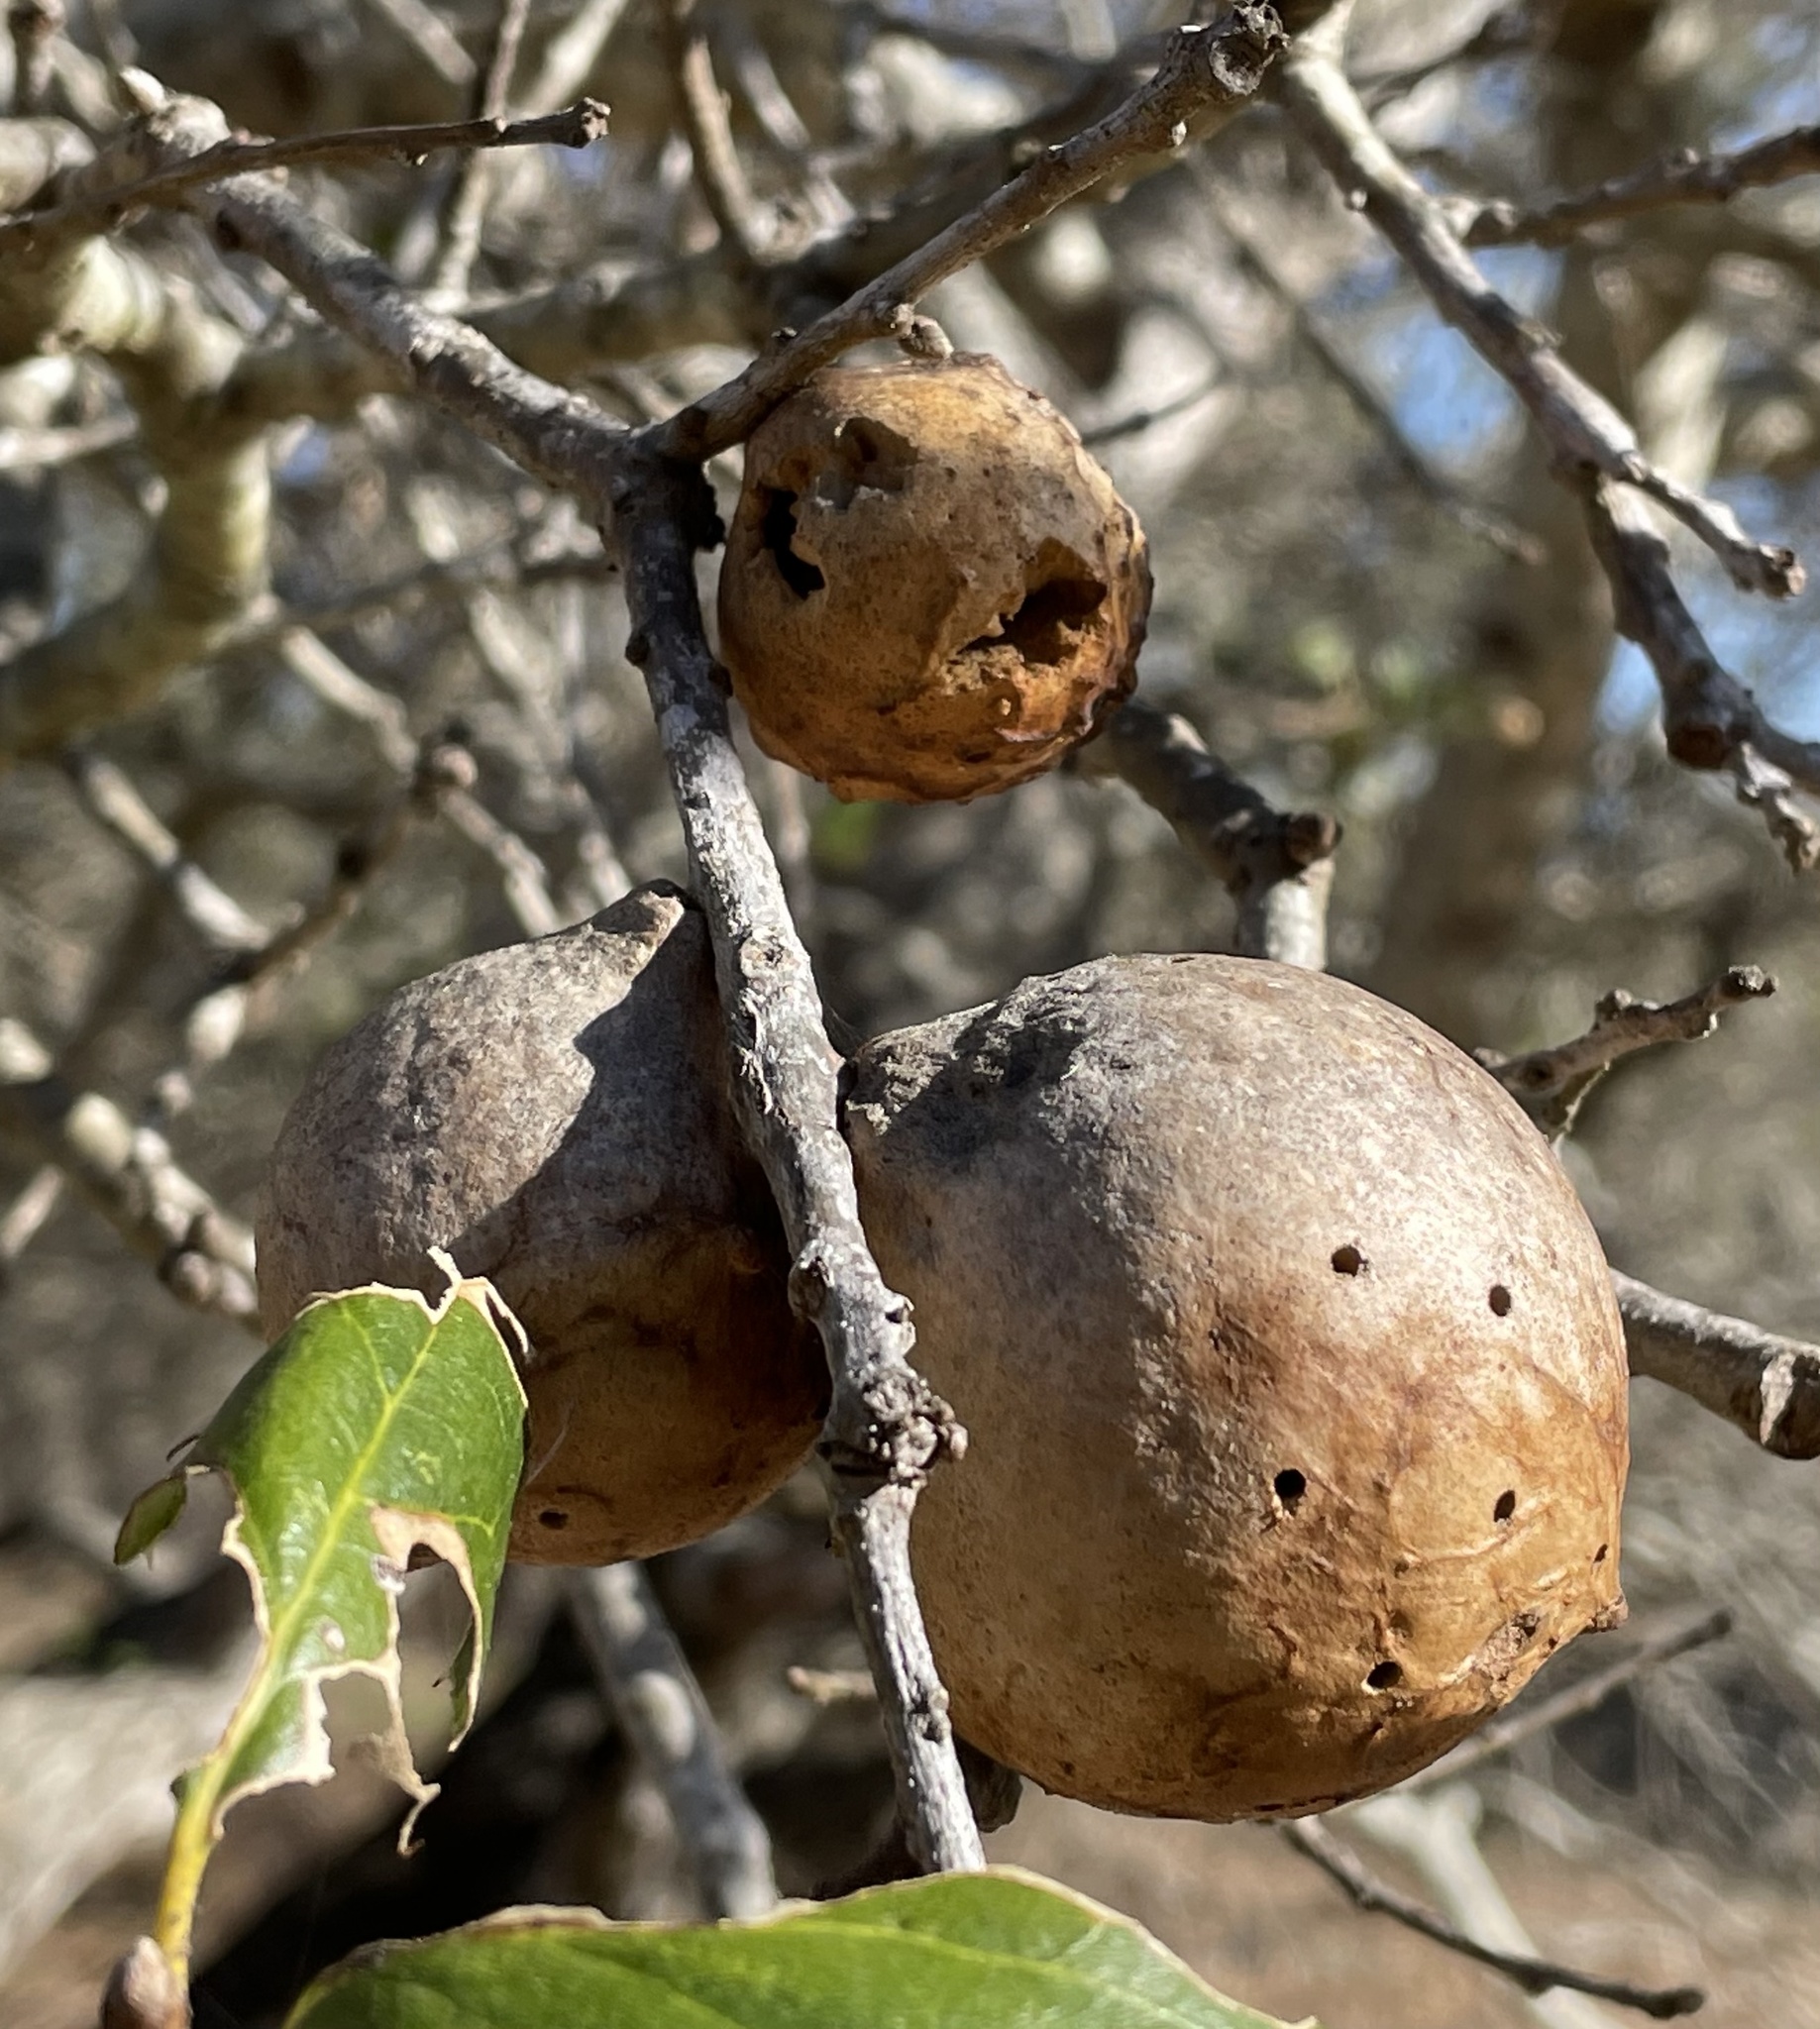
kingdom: Animalia
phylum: Arthropoda
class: Insecta
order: Hymenoptera
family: Cynipidae
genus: Amphibolips
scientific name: Amphibolips quercuspomiformis
